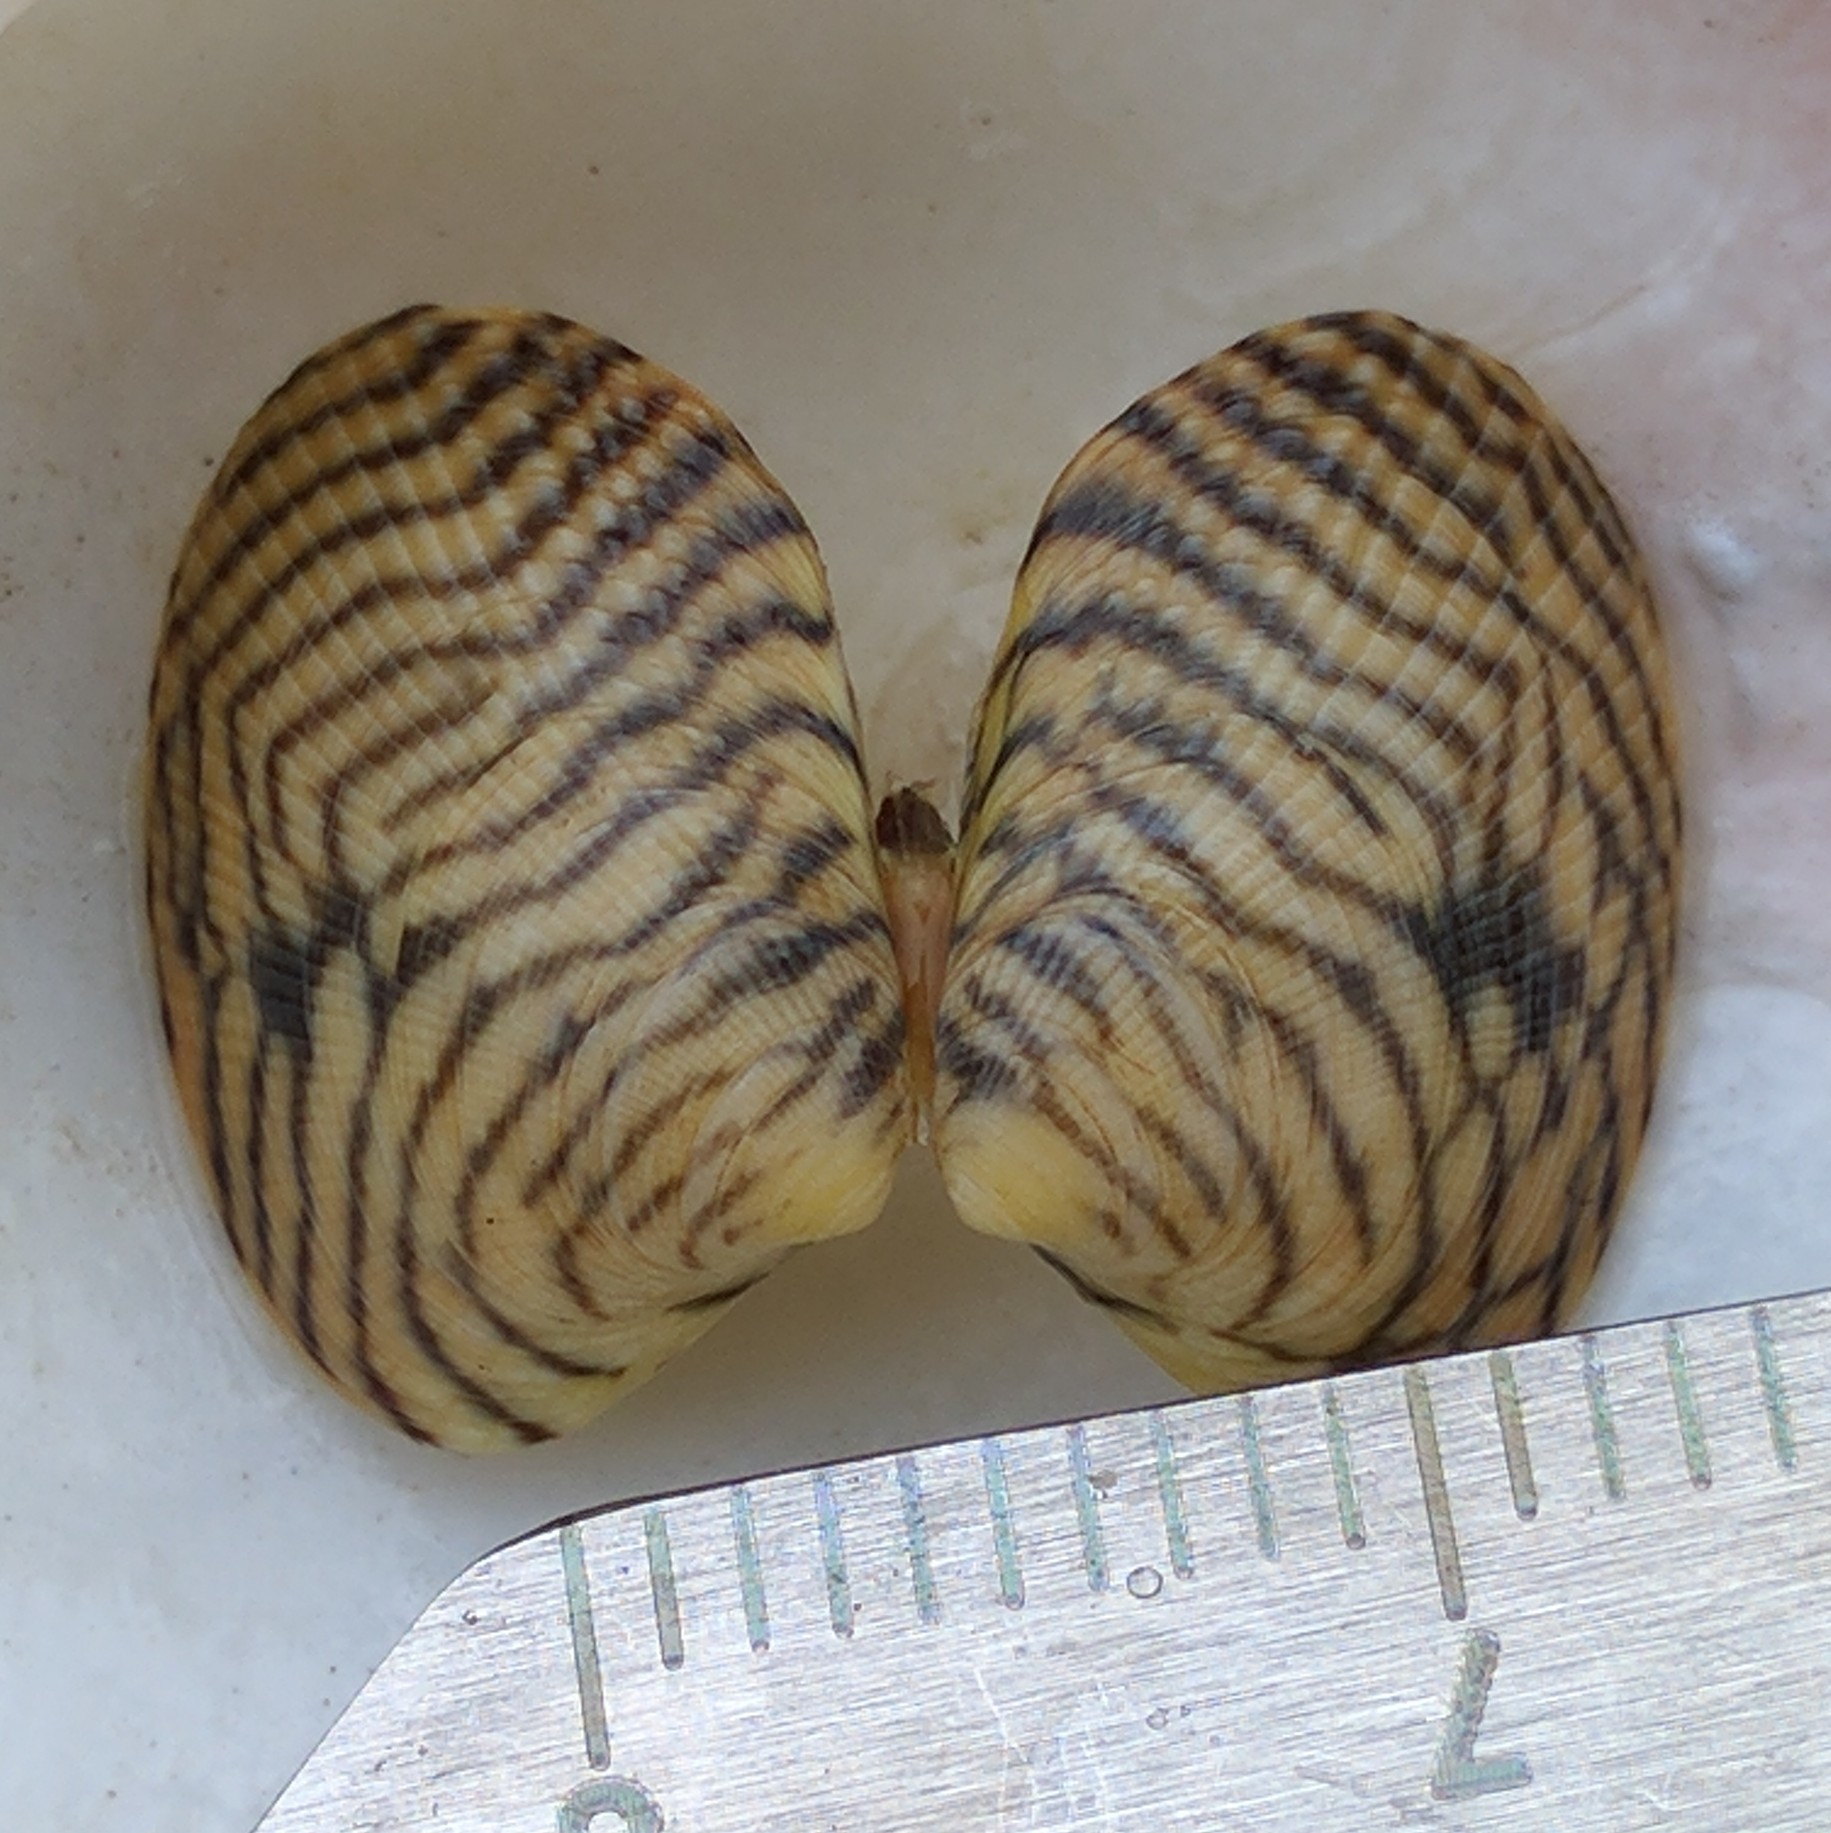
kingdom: Animalia
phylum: Mollusca
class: Bivalvia
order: Venerida
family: Veneridae
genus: Ruditapes
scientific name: Ruditapes philippinarum
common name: Manila clam
